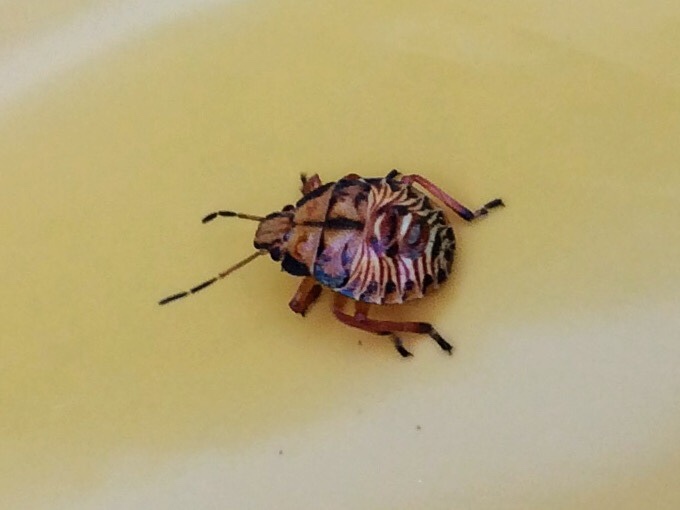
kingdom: Animalia
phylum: Arthropoda
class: Insecta
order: Hemiptera
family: Pentatomidae
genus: Podisus
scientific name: Podisus
